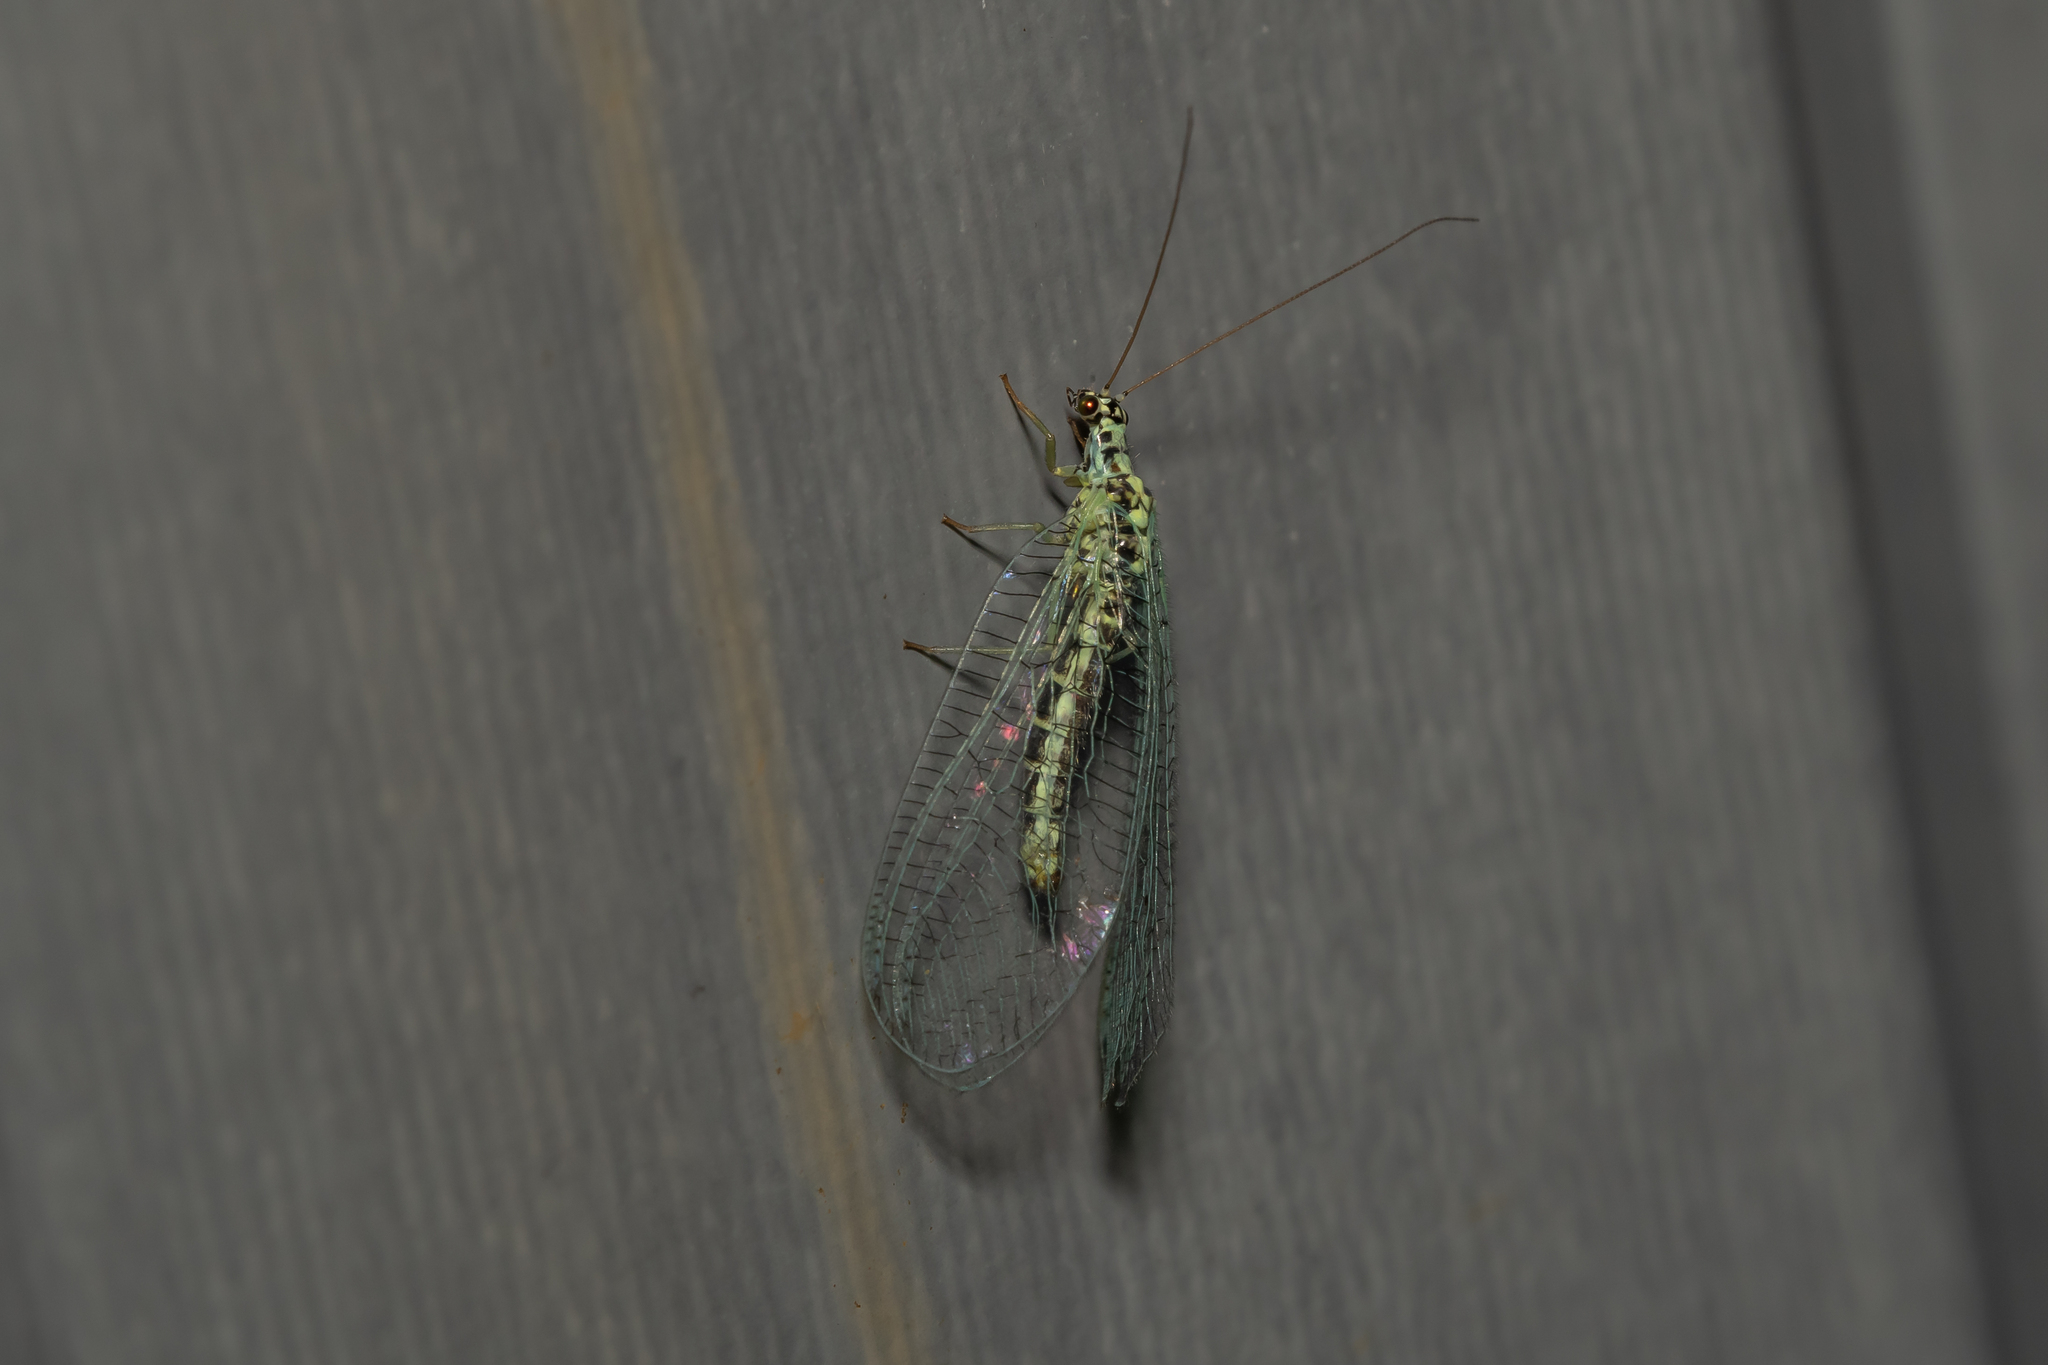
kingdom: Animalia
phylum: Arthropoda
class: Insecta
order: Neuroptera
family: Chrysopidae
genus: Chrysopa
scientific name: Chrysopa perla
